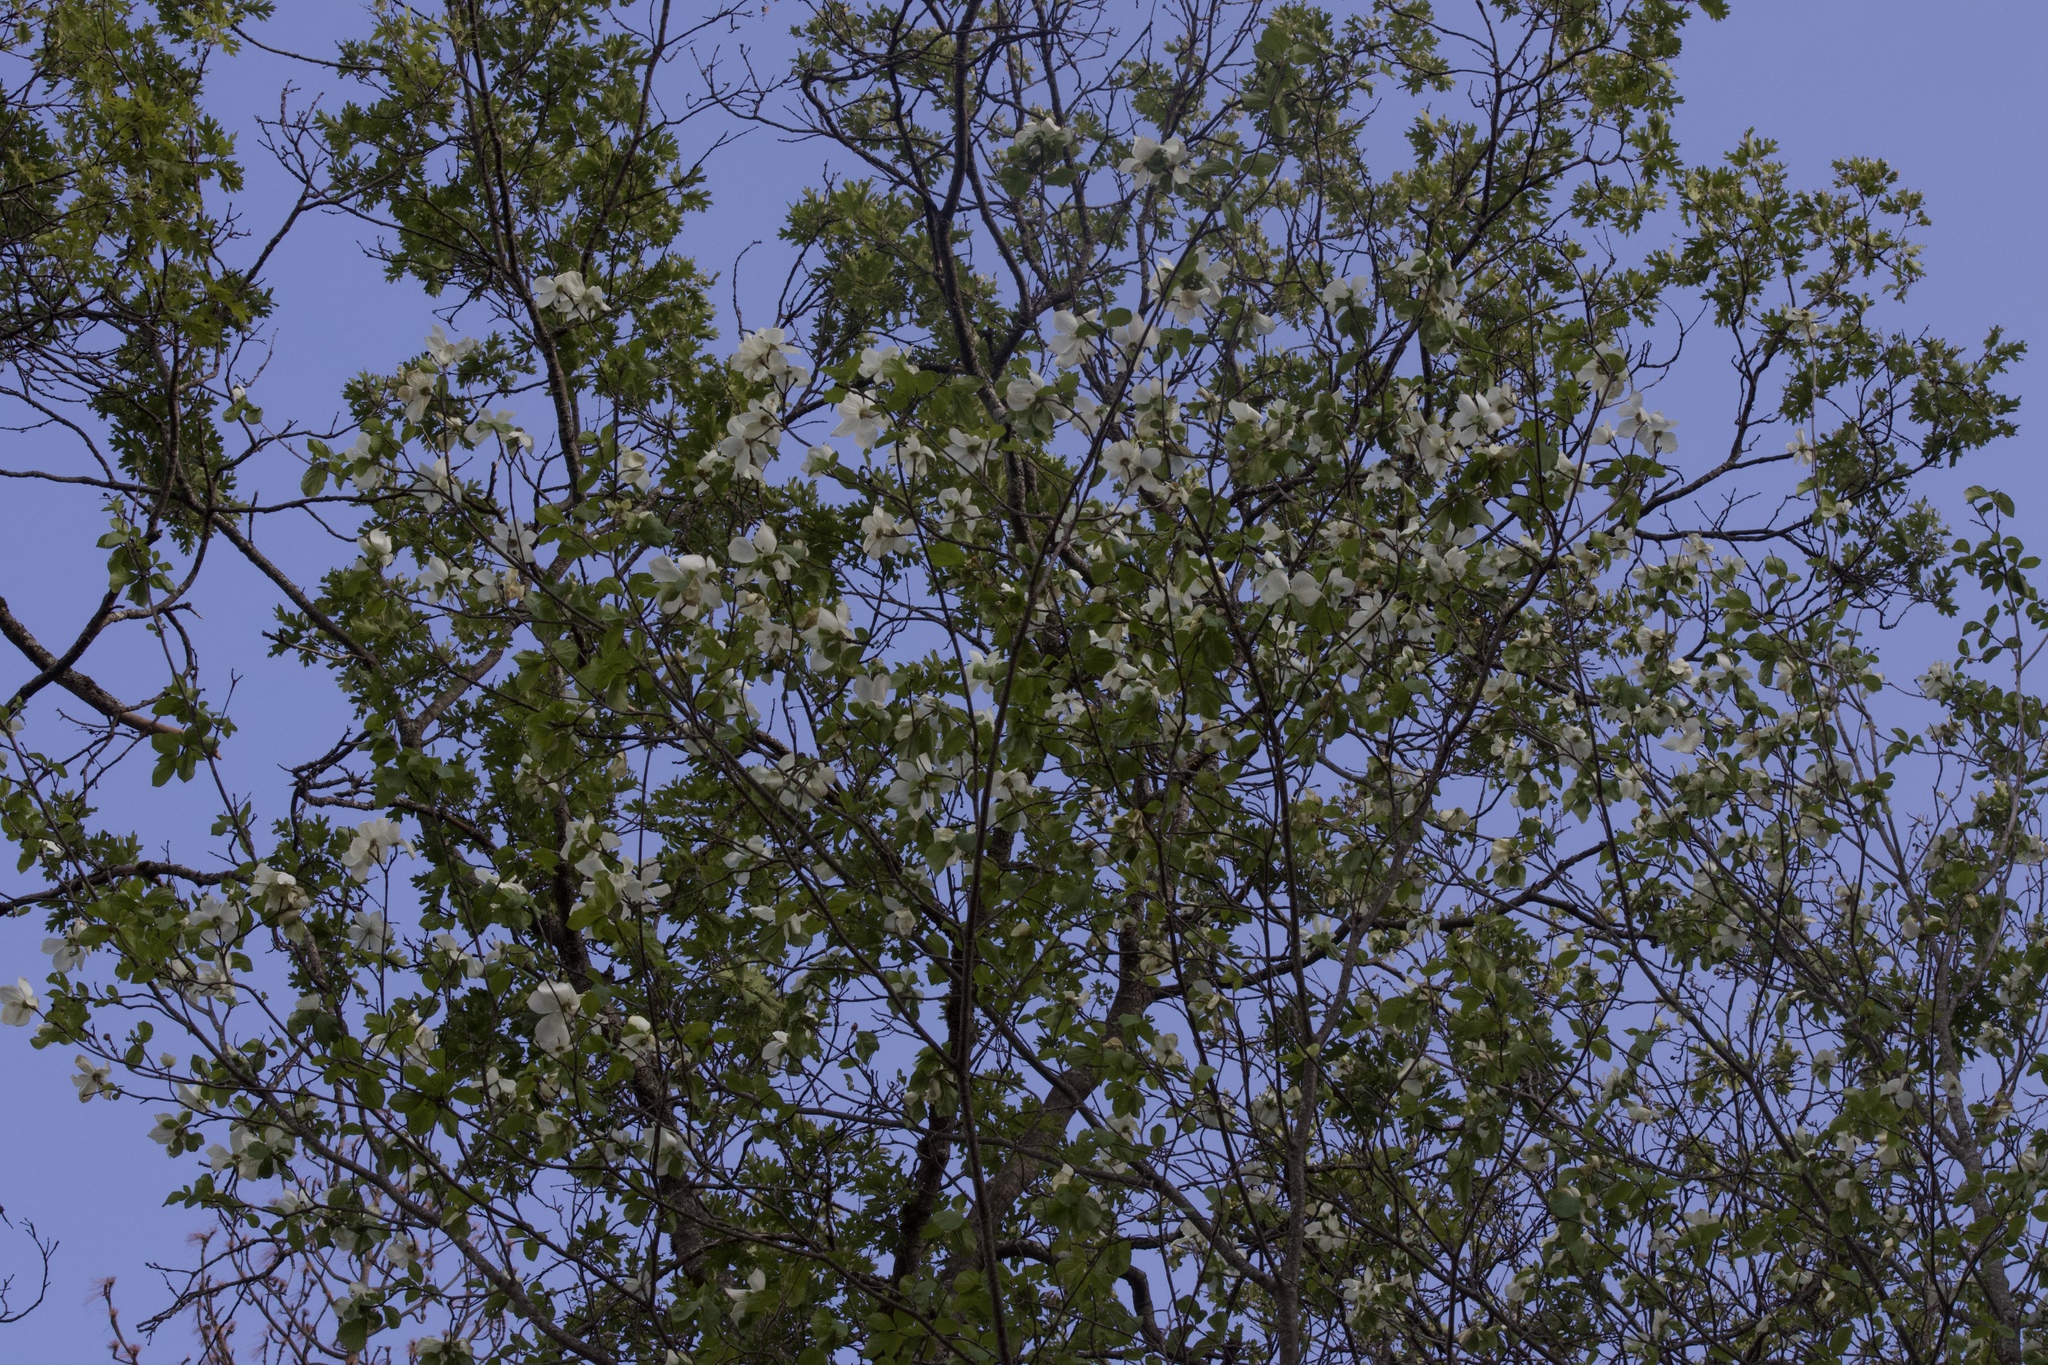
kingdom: Plantae
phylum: Tracheophyta
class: Magnoliopsida
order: Cornales
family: Cornaceae
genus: Cornus
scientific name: Cornus nuttallii
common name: Pacific dogwood
